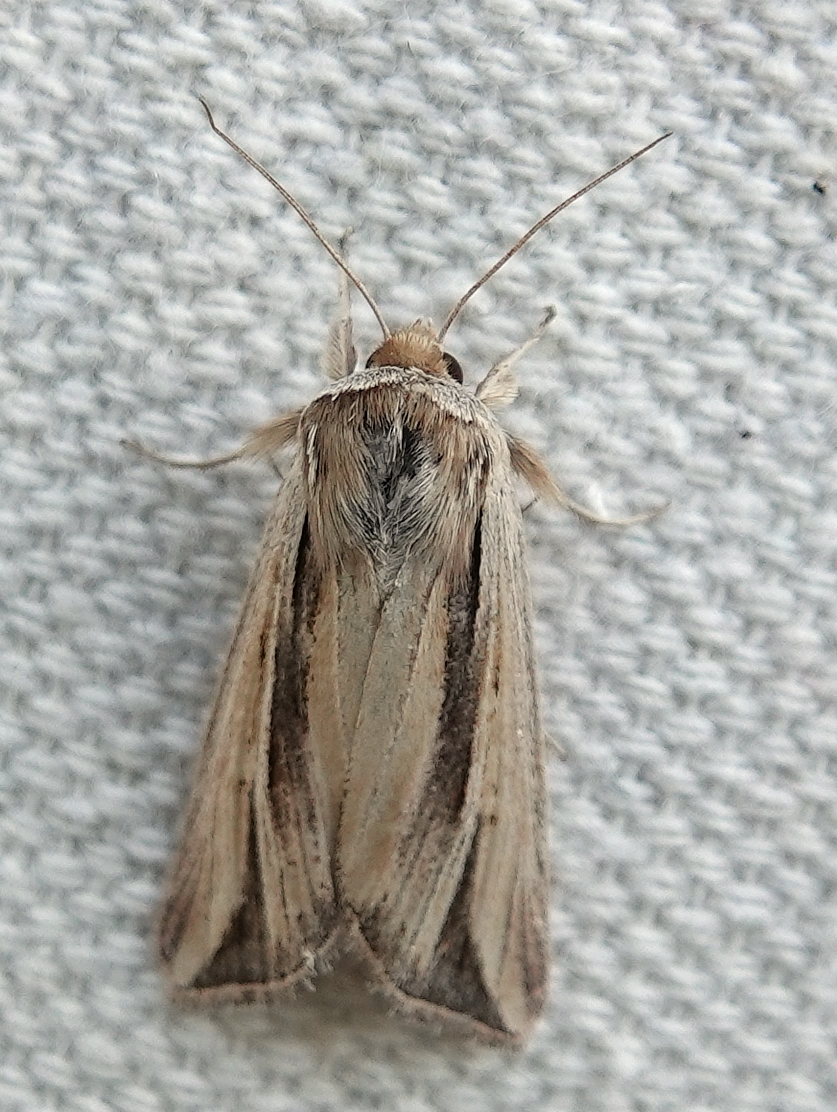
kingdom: Animalia
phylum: Arthropoda
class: Insecta
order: Lepidoptera
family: Noctuidae
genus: Dargida
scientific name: Dargida diffusa
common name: Wheat head armyworm
